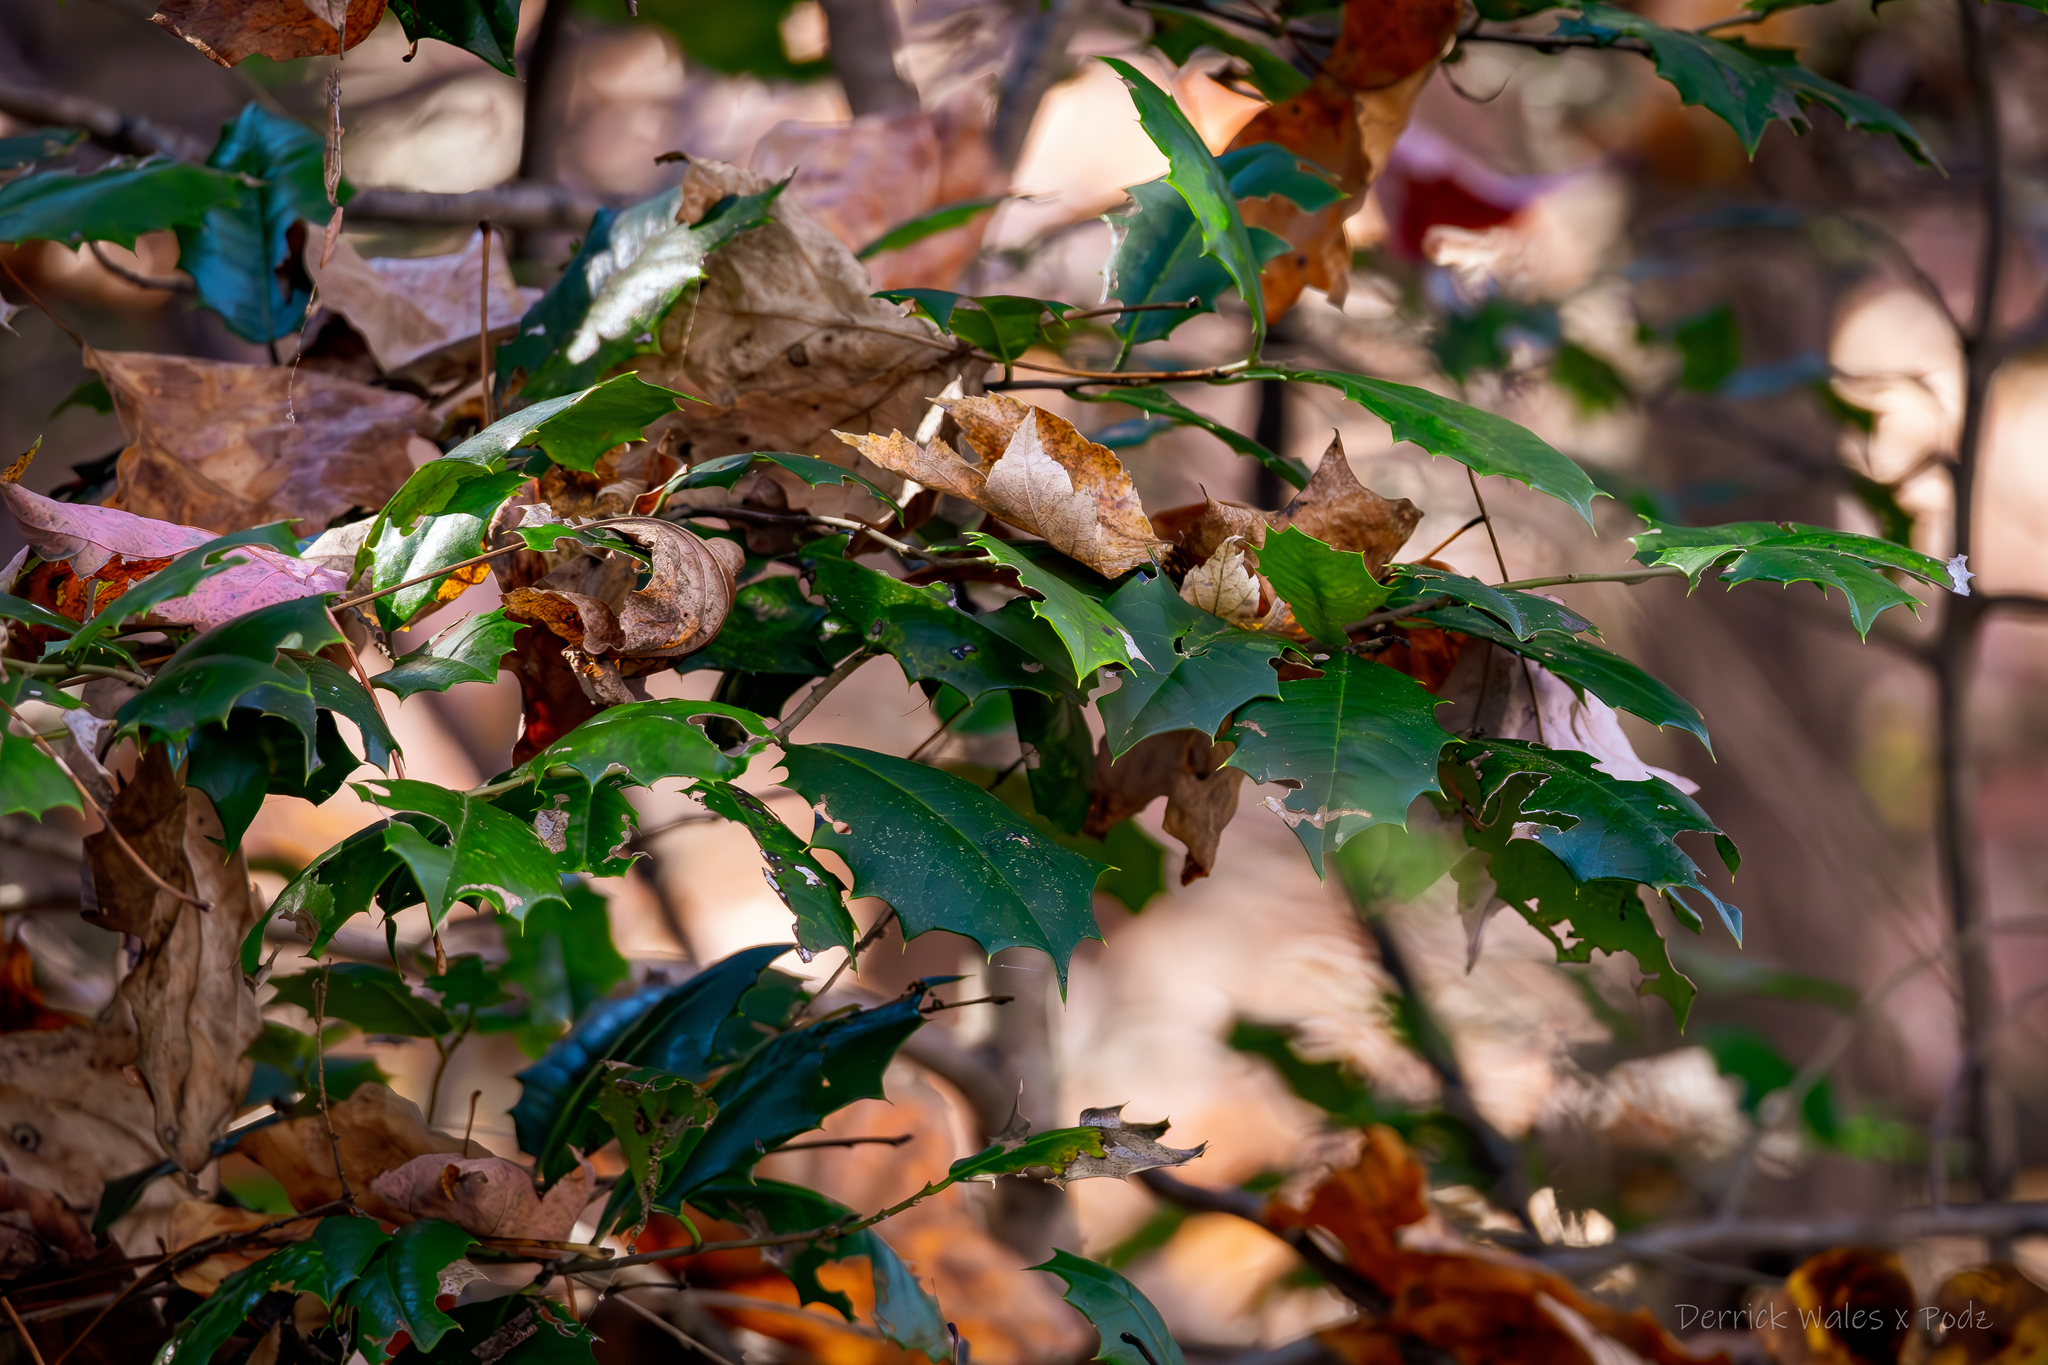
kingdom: Plantae
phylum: Tracheophyta
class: Magnoliopsida
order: Aquifoliales
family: Aquifoliaceae
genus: Ilex
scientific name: Ilex opaca
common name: American holly
